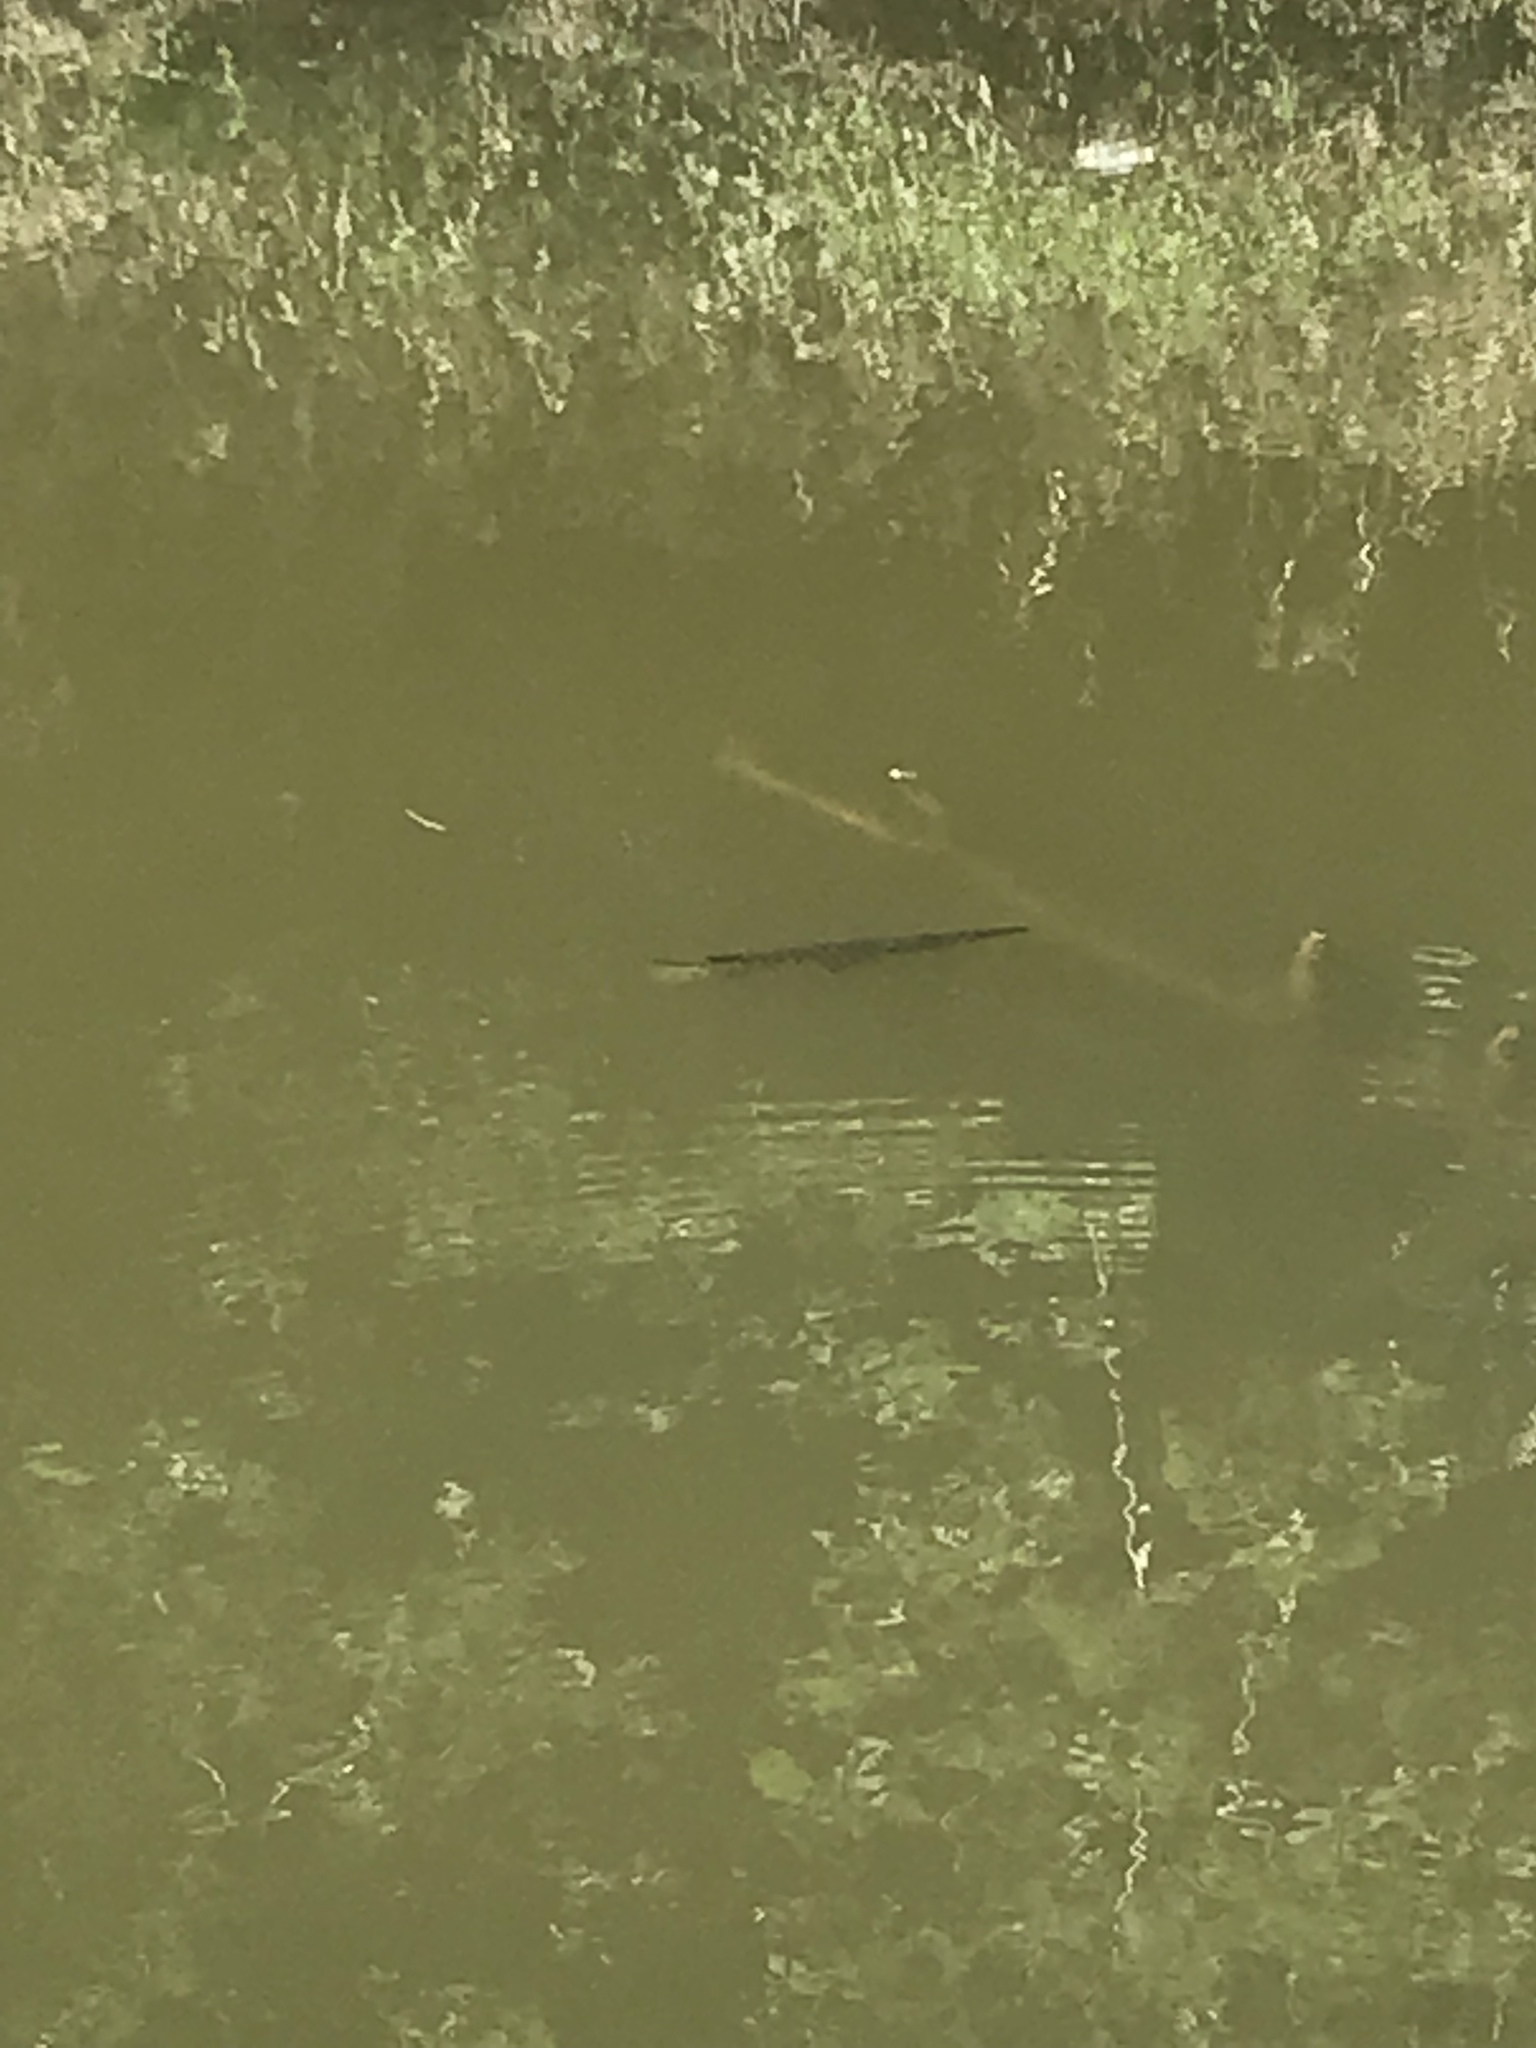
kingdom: Animalia
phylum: Chordata
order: Lepisosteiformes
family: Lepisosteidae
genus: Lepisosteus
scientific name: Lepisosteus oculatus
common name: Spotted gar
